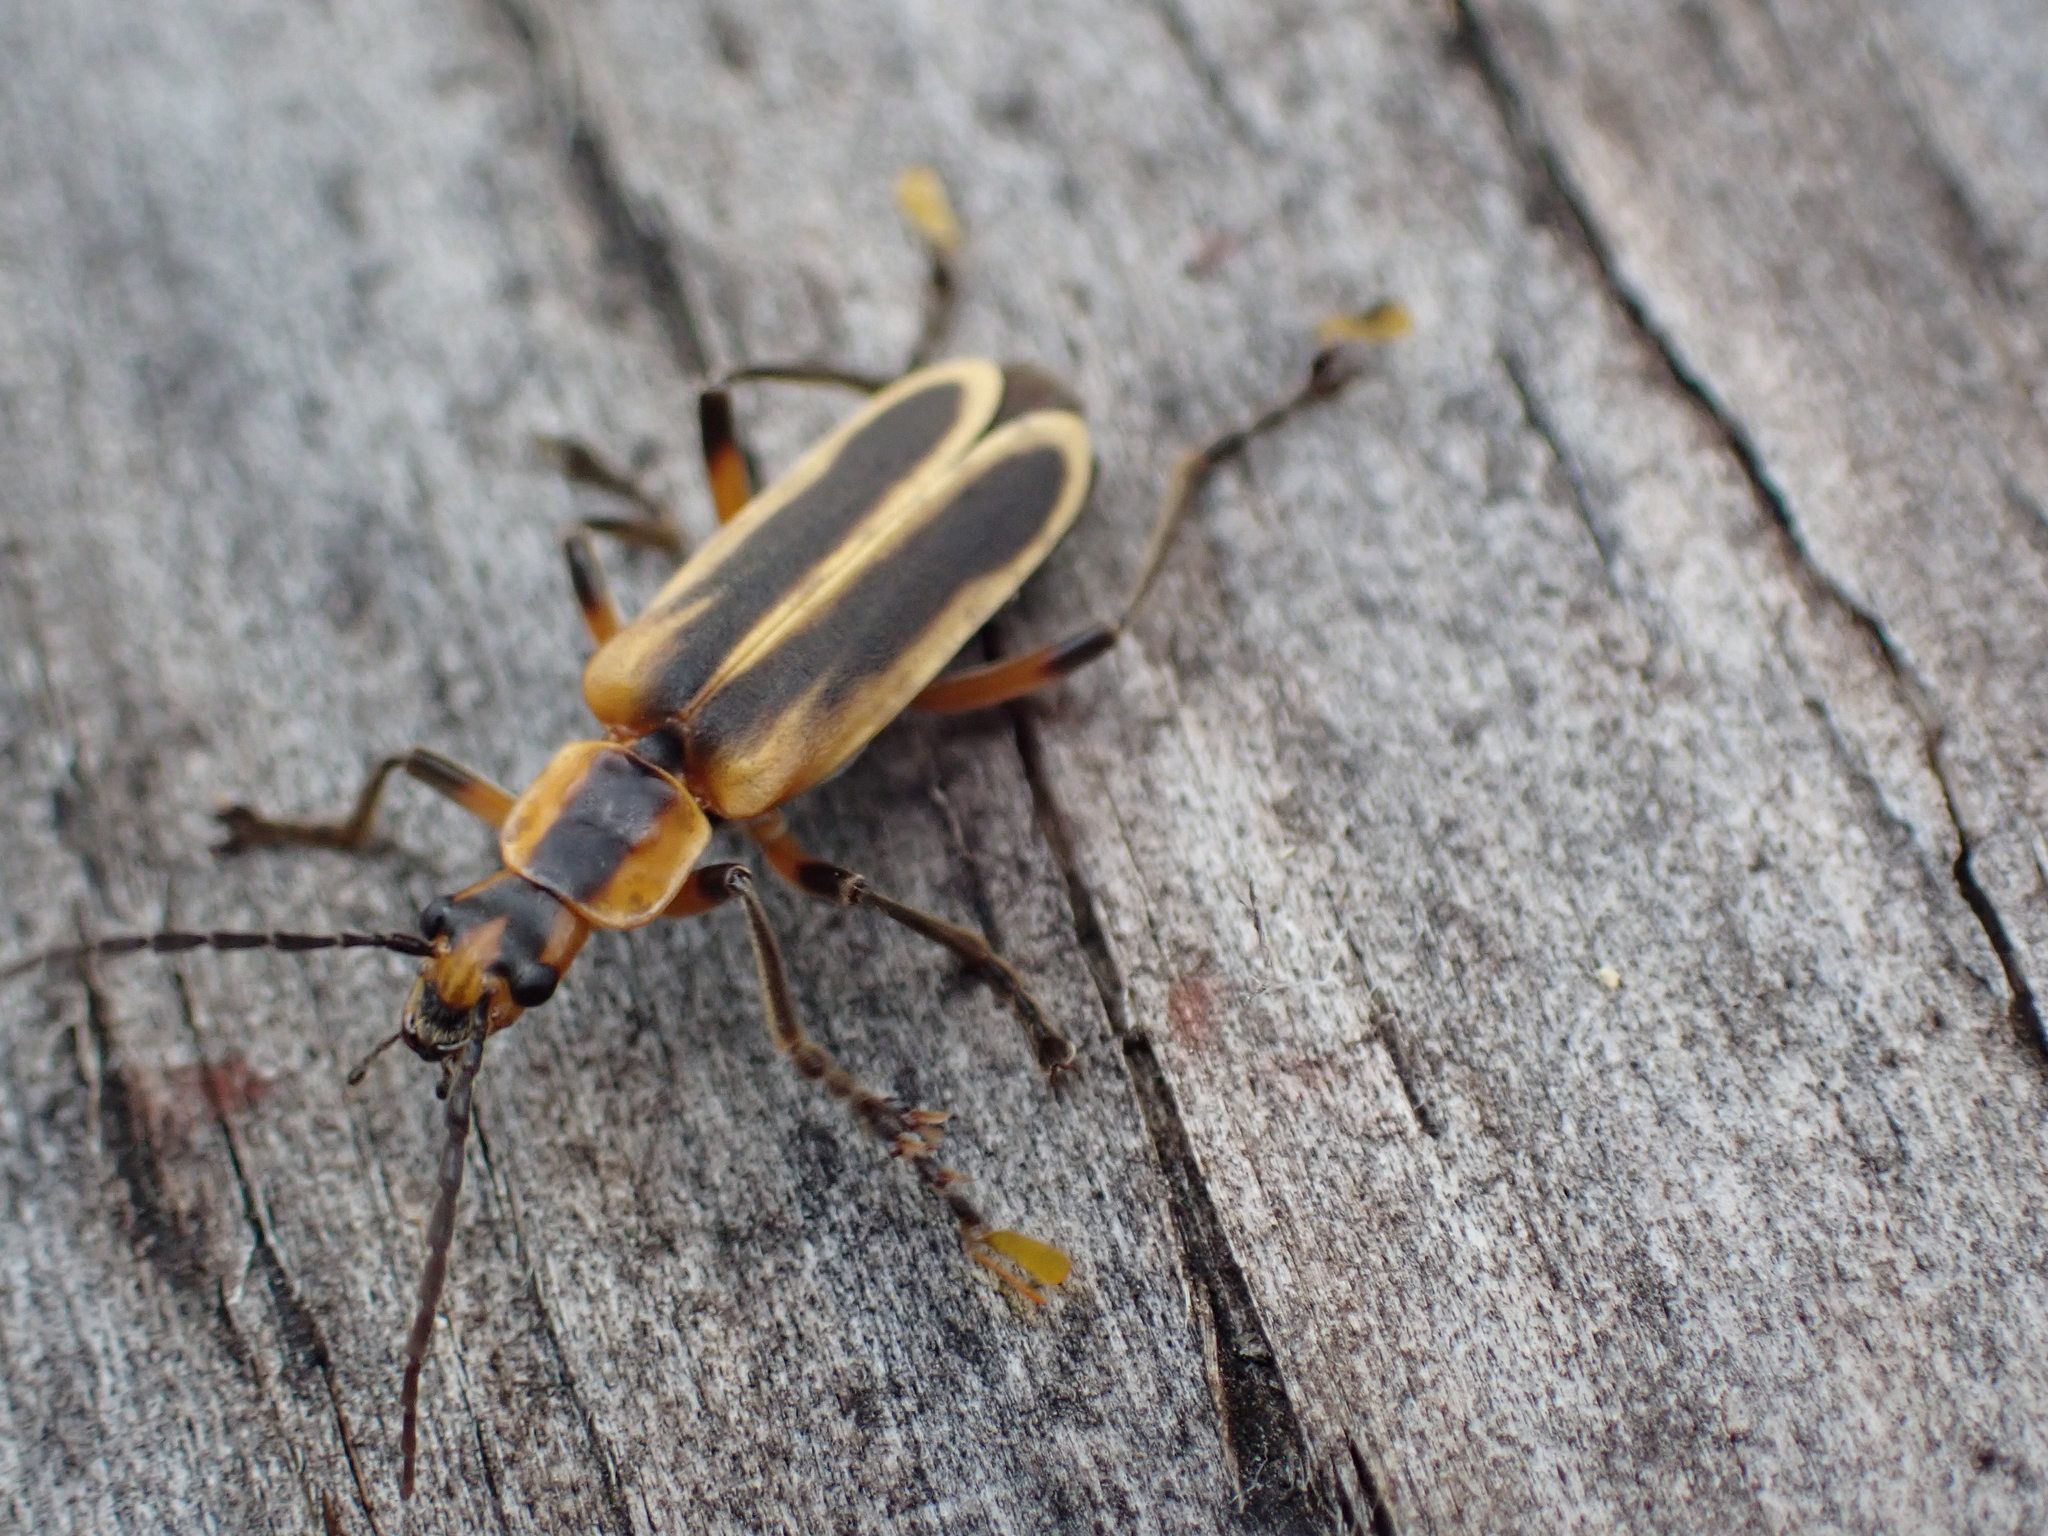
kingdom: Animalia
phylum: Arthropoda
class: Insecta
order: Coleoptera
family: Cantharidae
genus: Chauliognathus
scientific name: Chauliognathus marginatus
